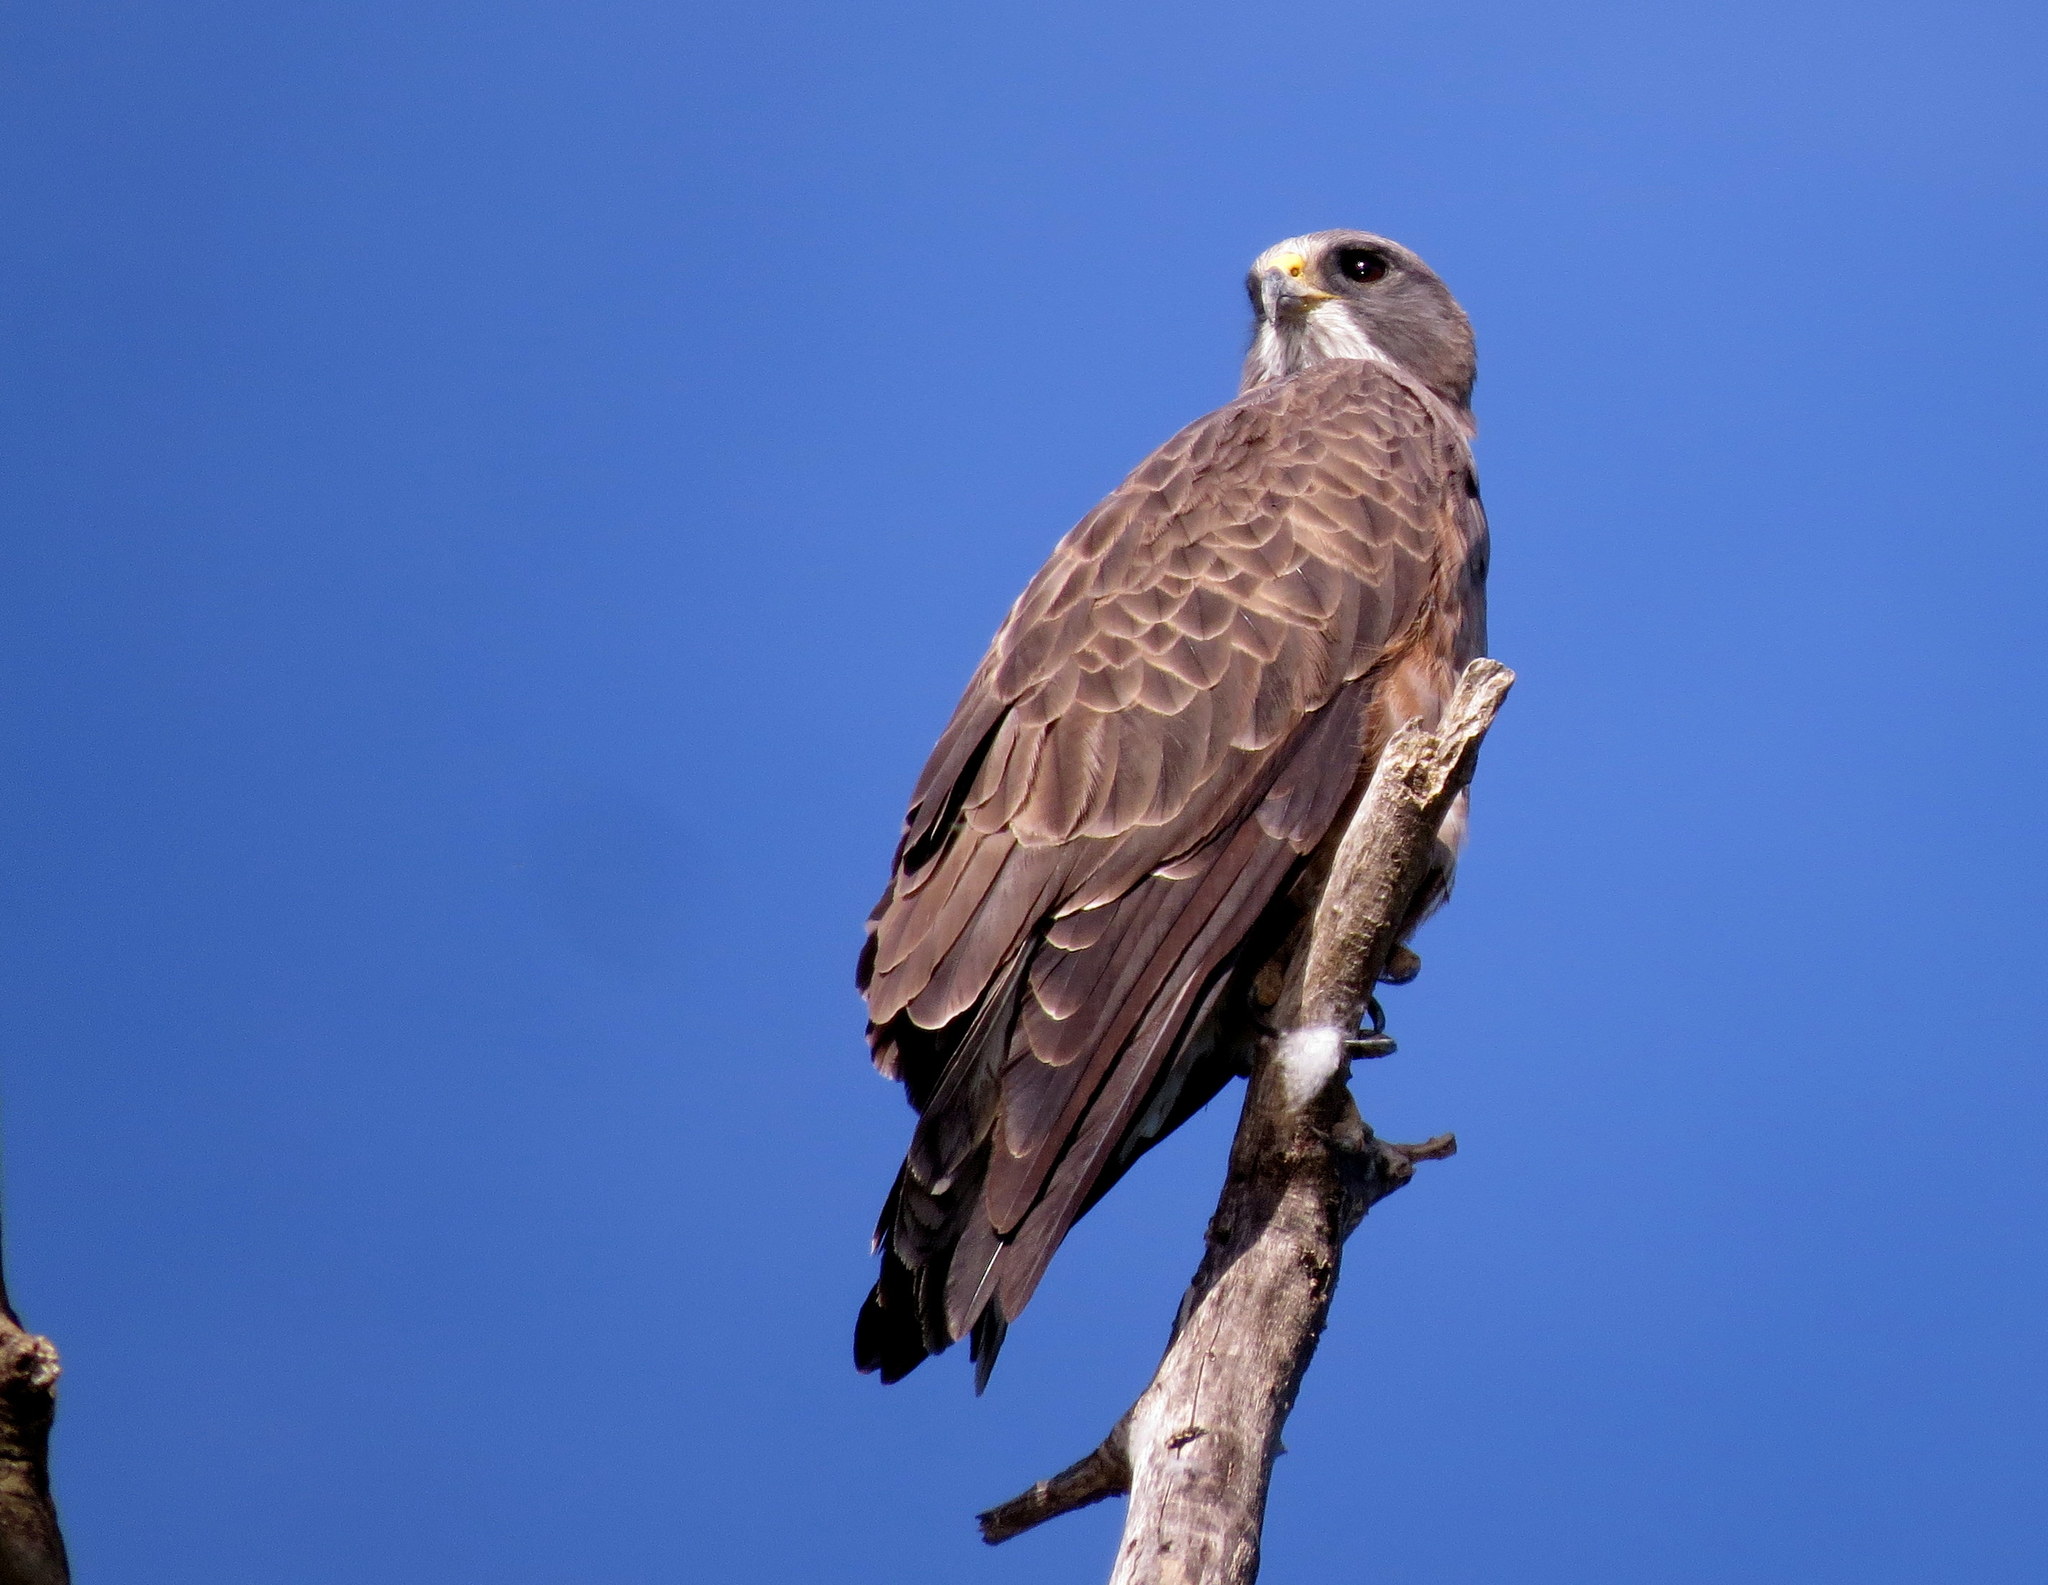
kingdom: Animalia
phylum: Chordata
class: Aves
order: Accipitriformes
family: Accipitridae
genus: Buteo
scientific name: Buteo swainsoni
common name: Swainson's hawk
